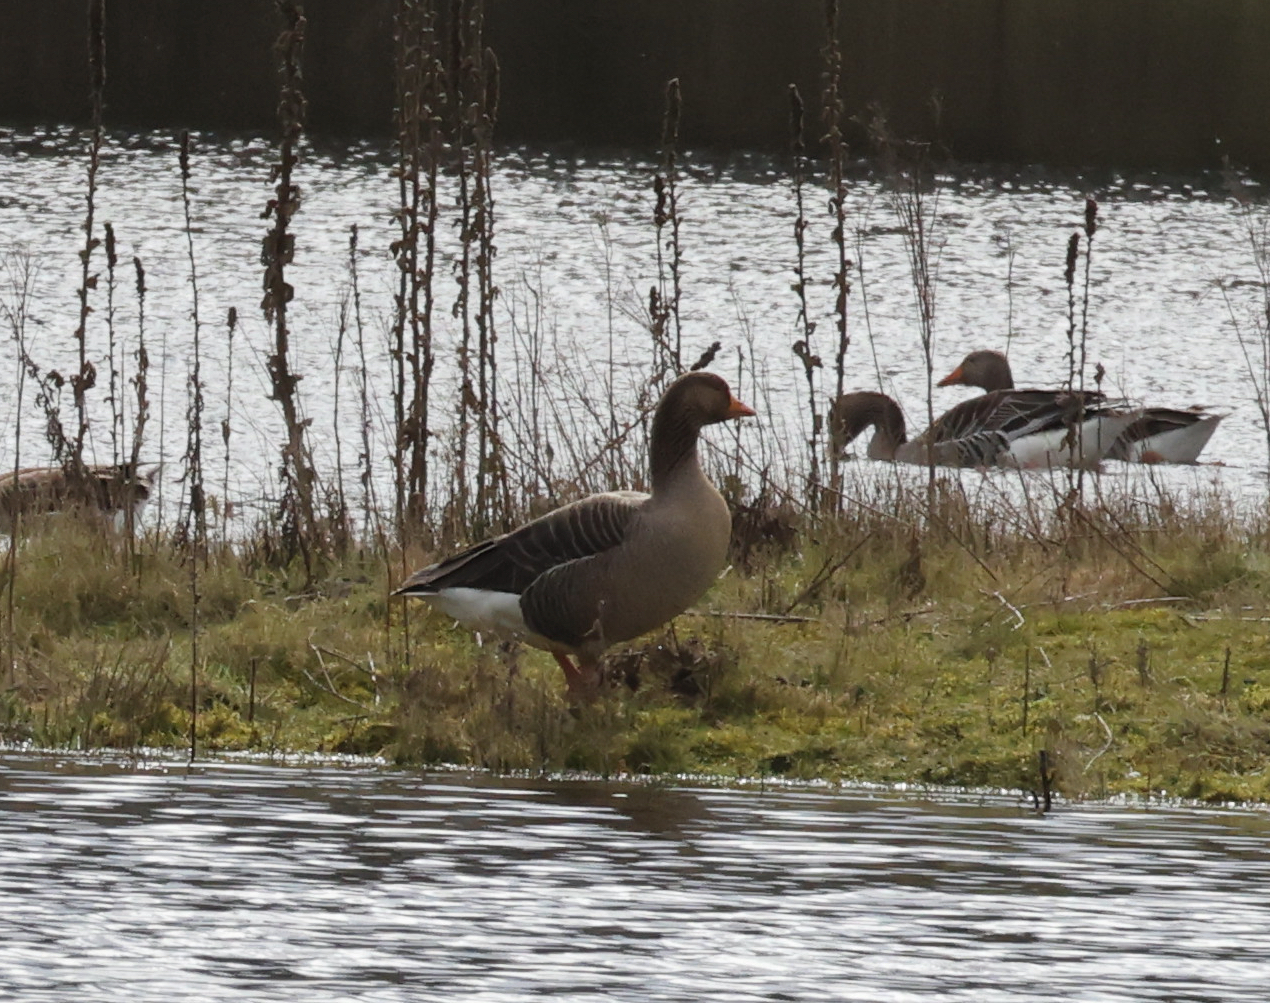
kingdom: Animalia
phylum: Chordata
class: Aves
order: Anseriformes
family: Anatidae
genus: Anser
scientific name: Anser anser
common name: Greylag goose
